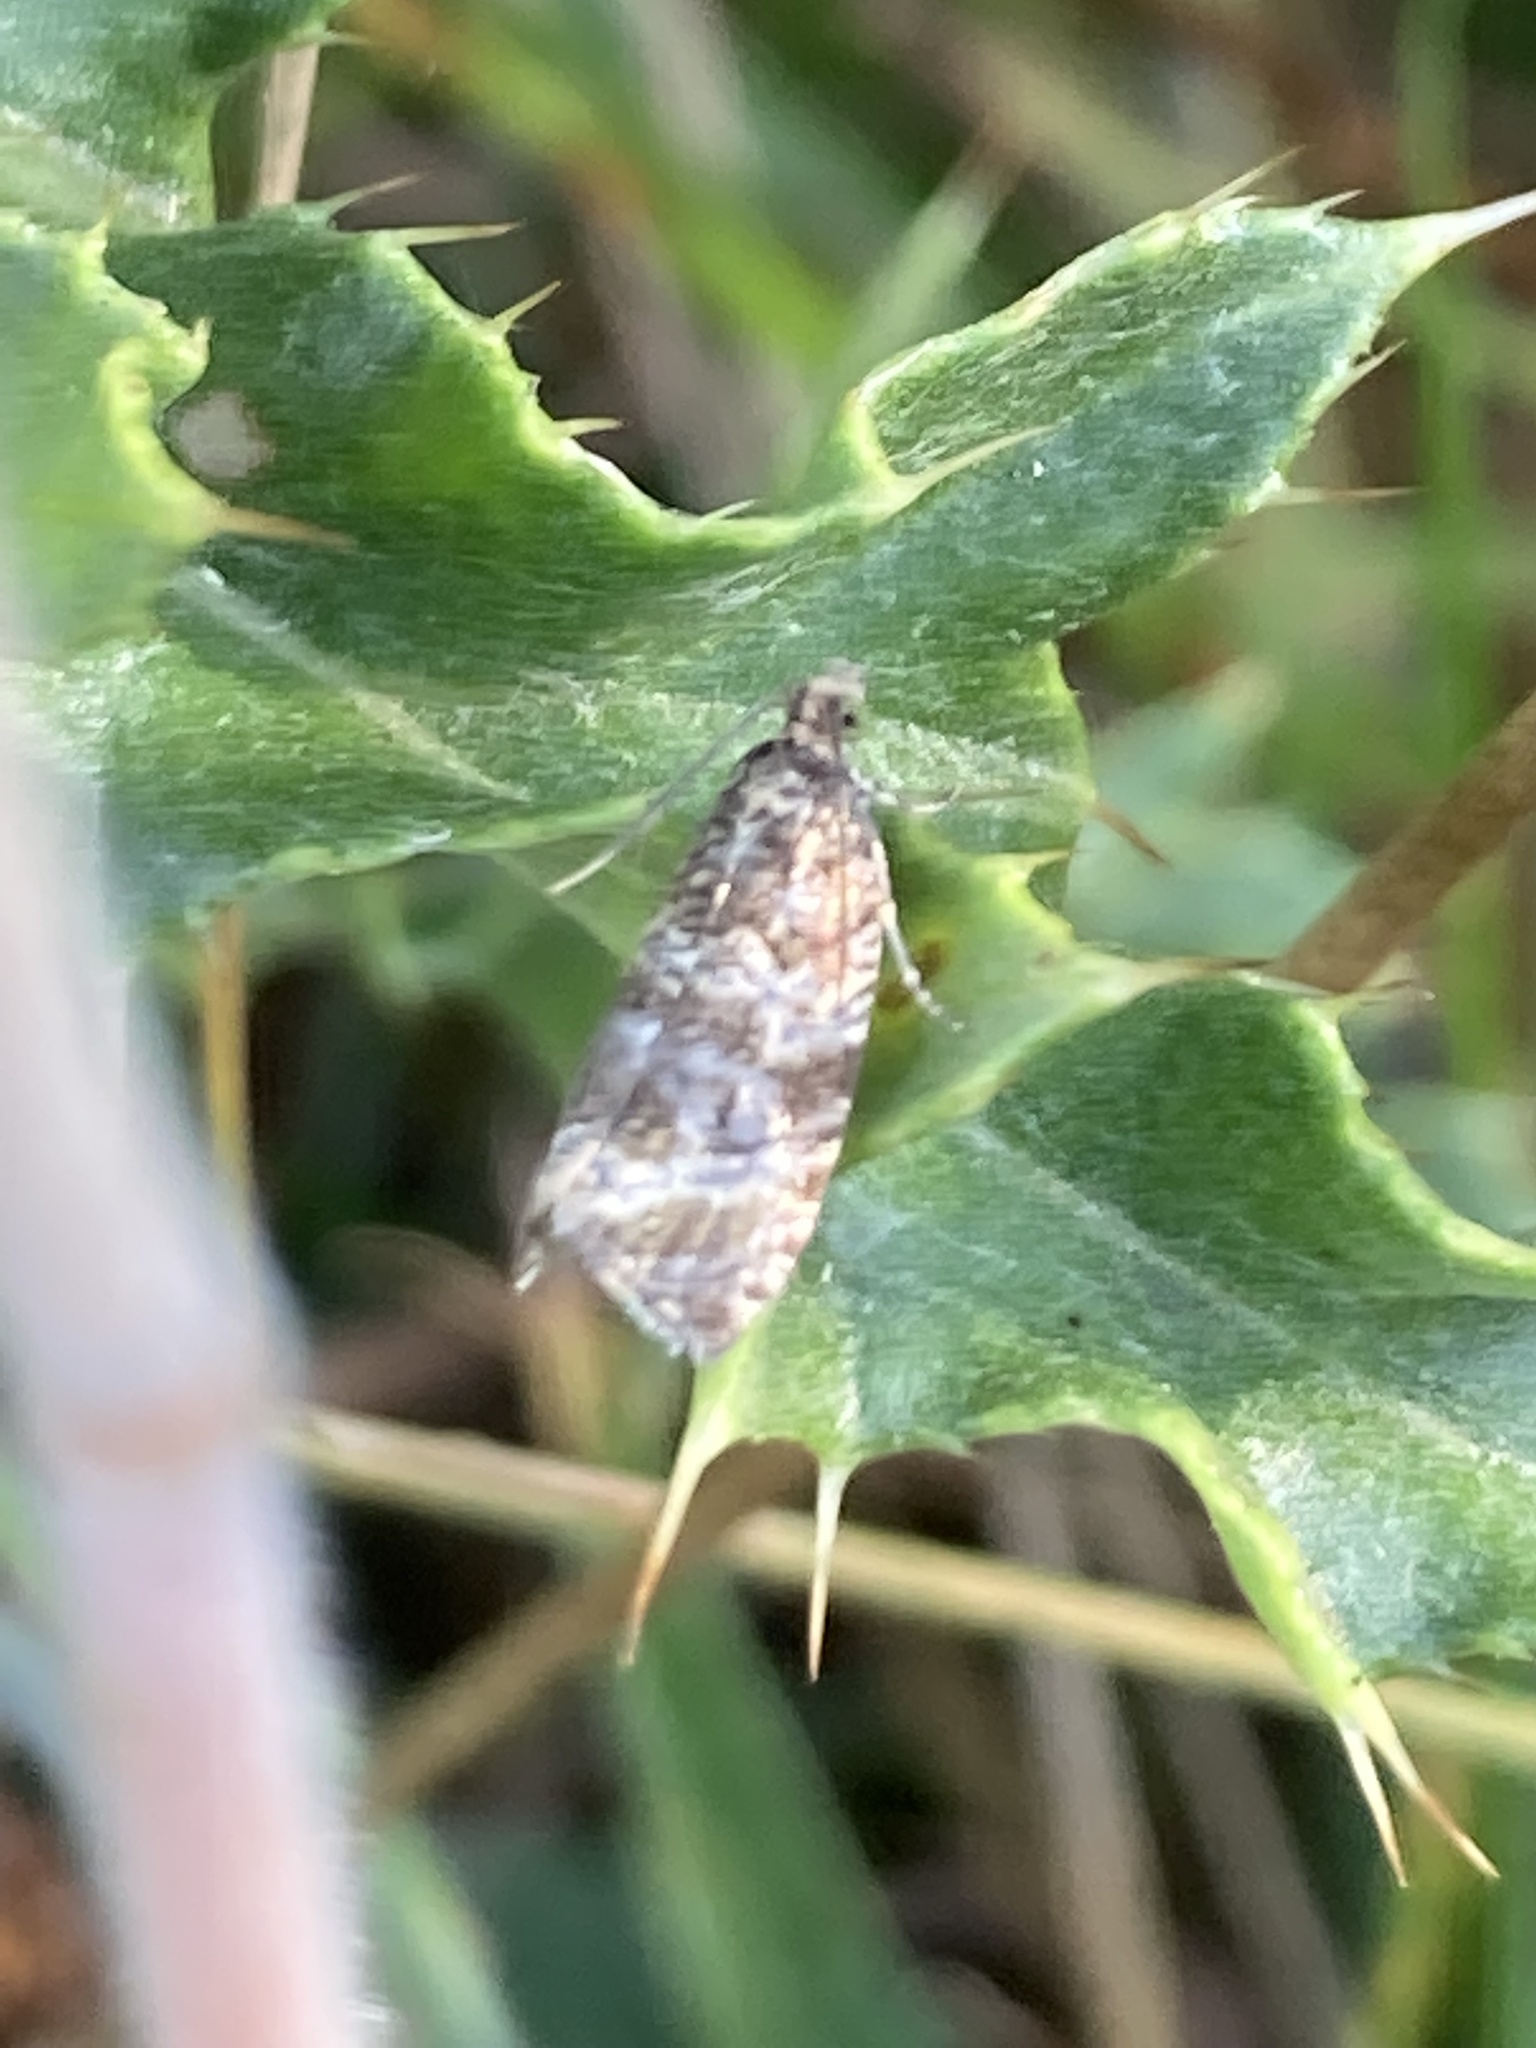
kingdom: Animalia
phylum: Arthropoda
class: Insecta
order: Lepidoptera
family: Tortricidae
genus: Syricoris
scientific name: Syricoris lacunana
